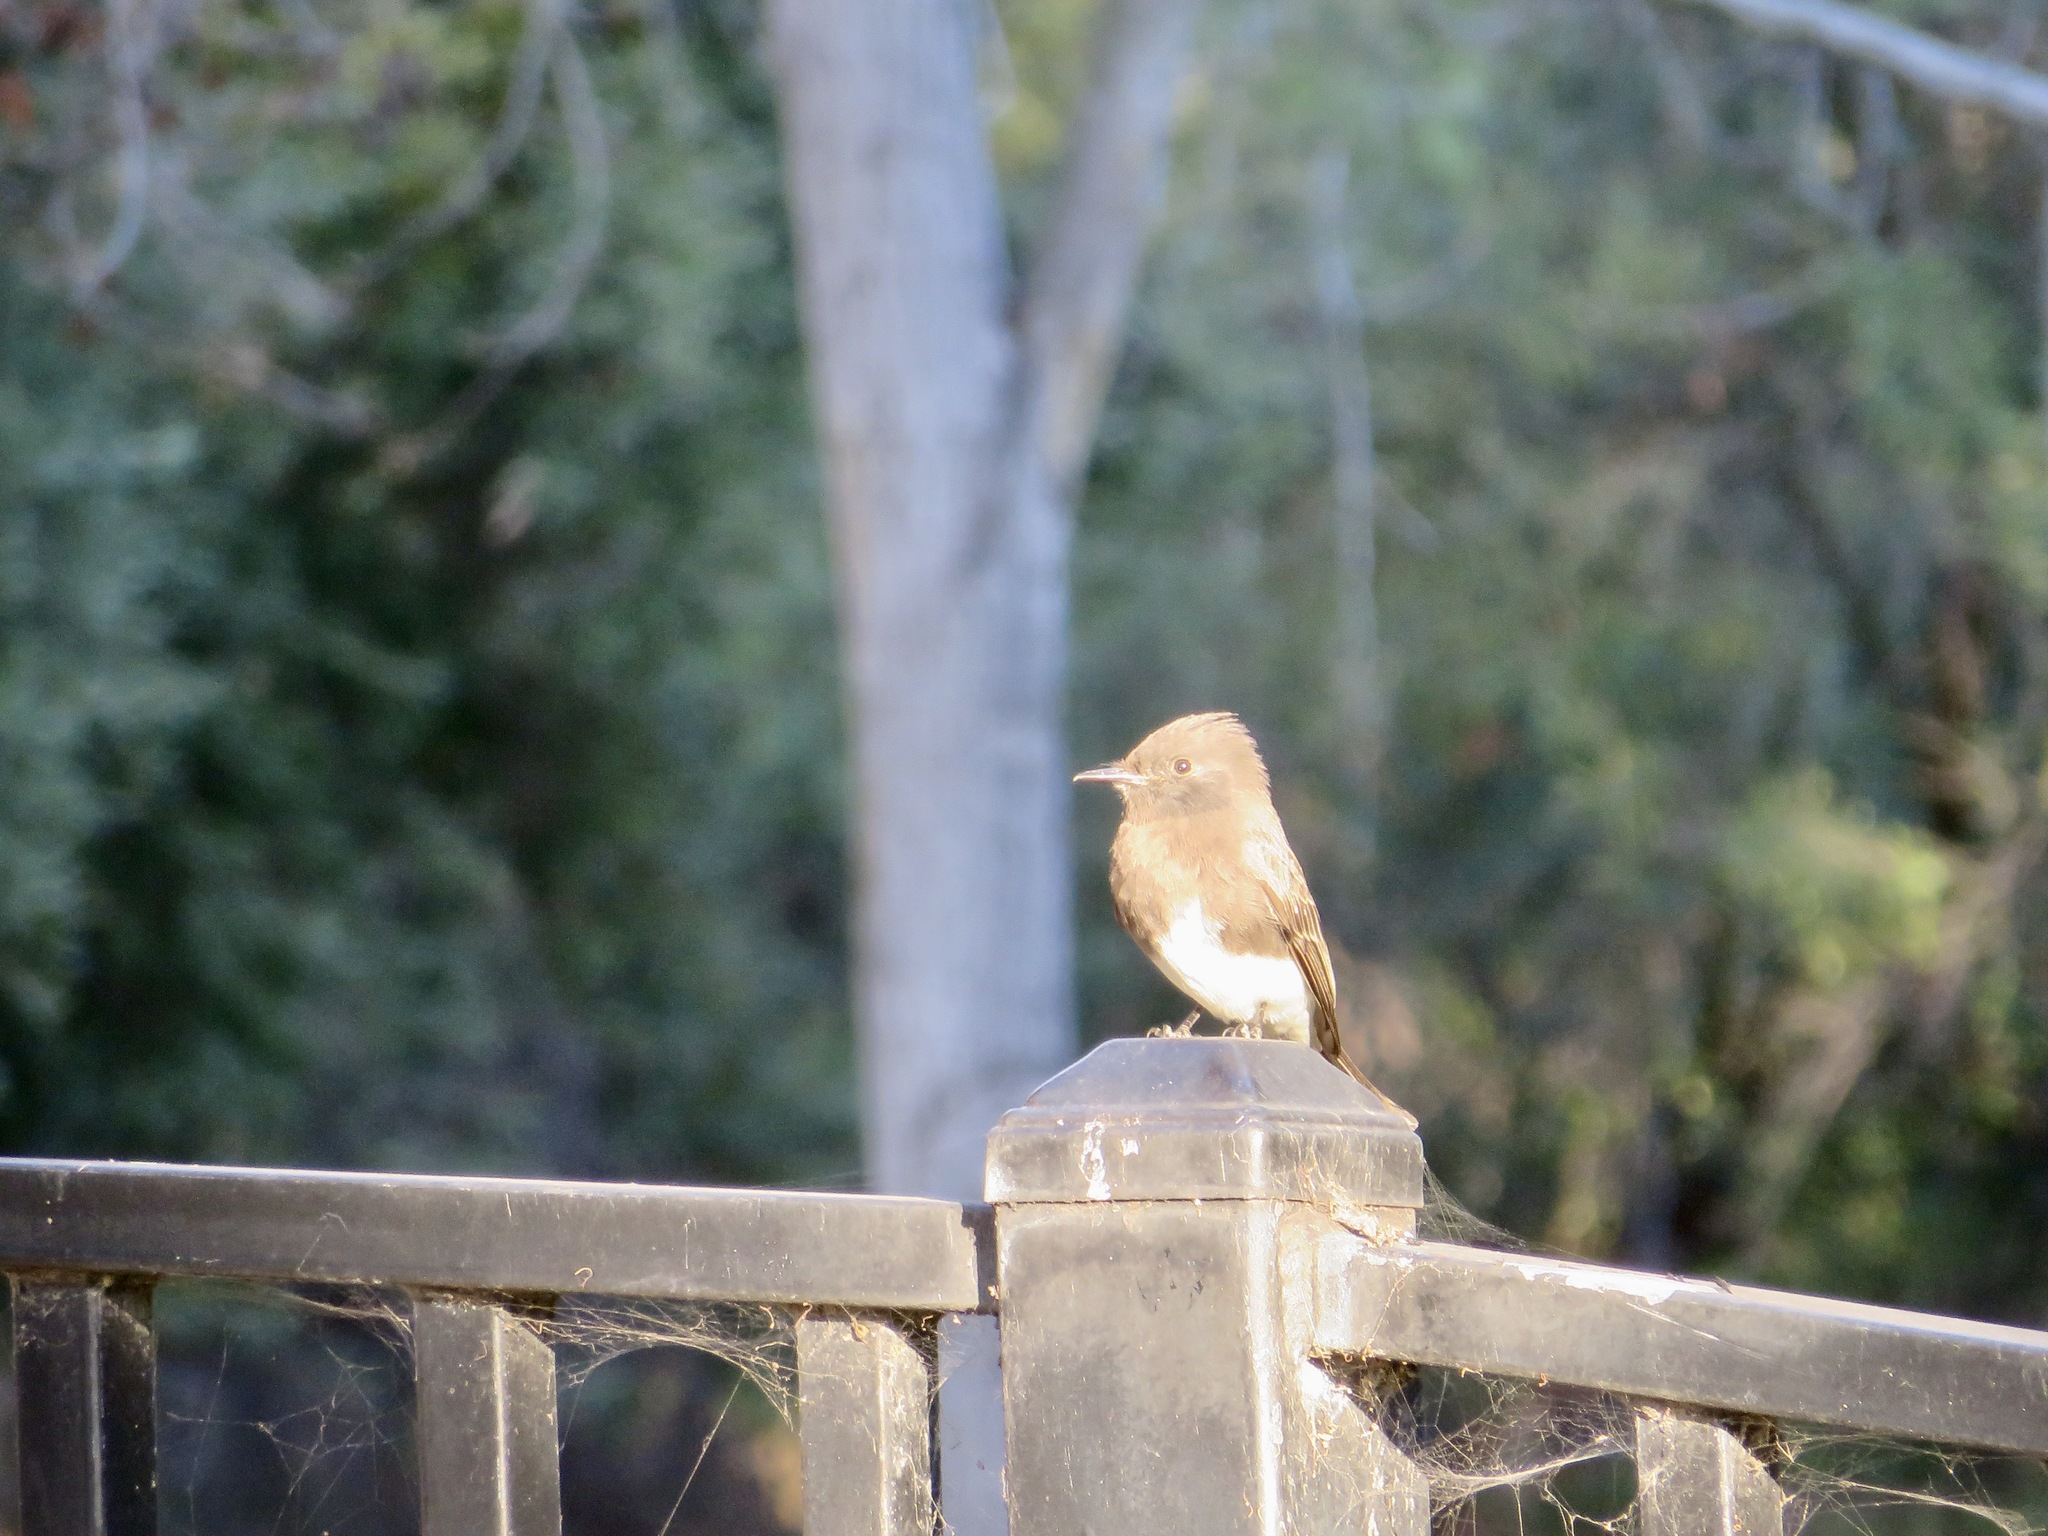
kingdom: Animalia
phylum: Chordata
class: Aves
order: Passeriformes
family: Tyrannidae
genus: Sayornis
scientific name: Sayornis nigricans
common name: Black phoebe
